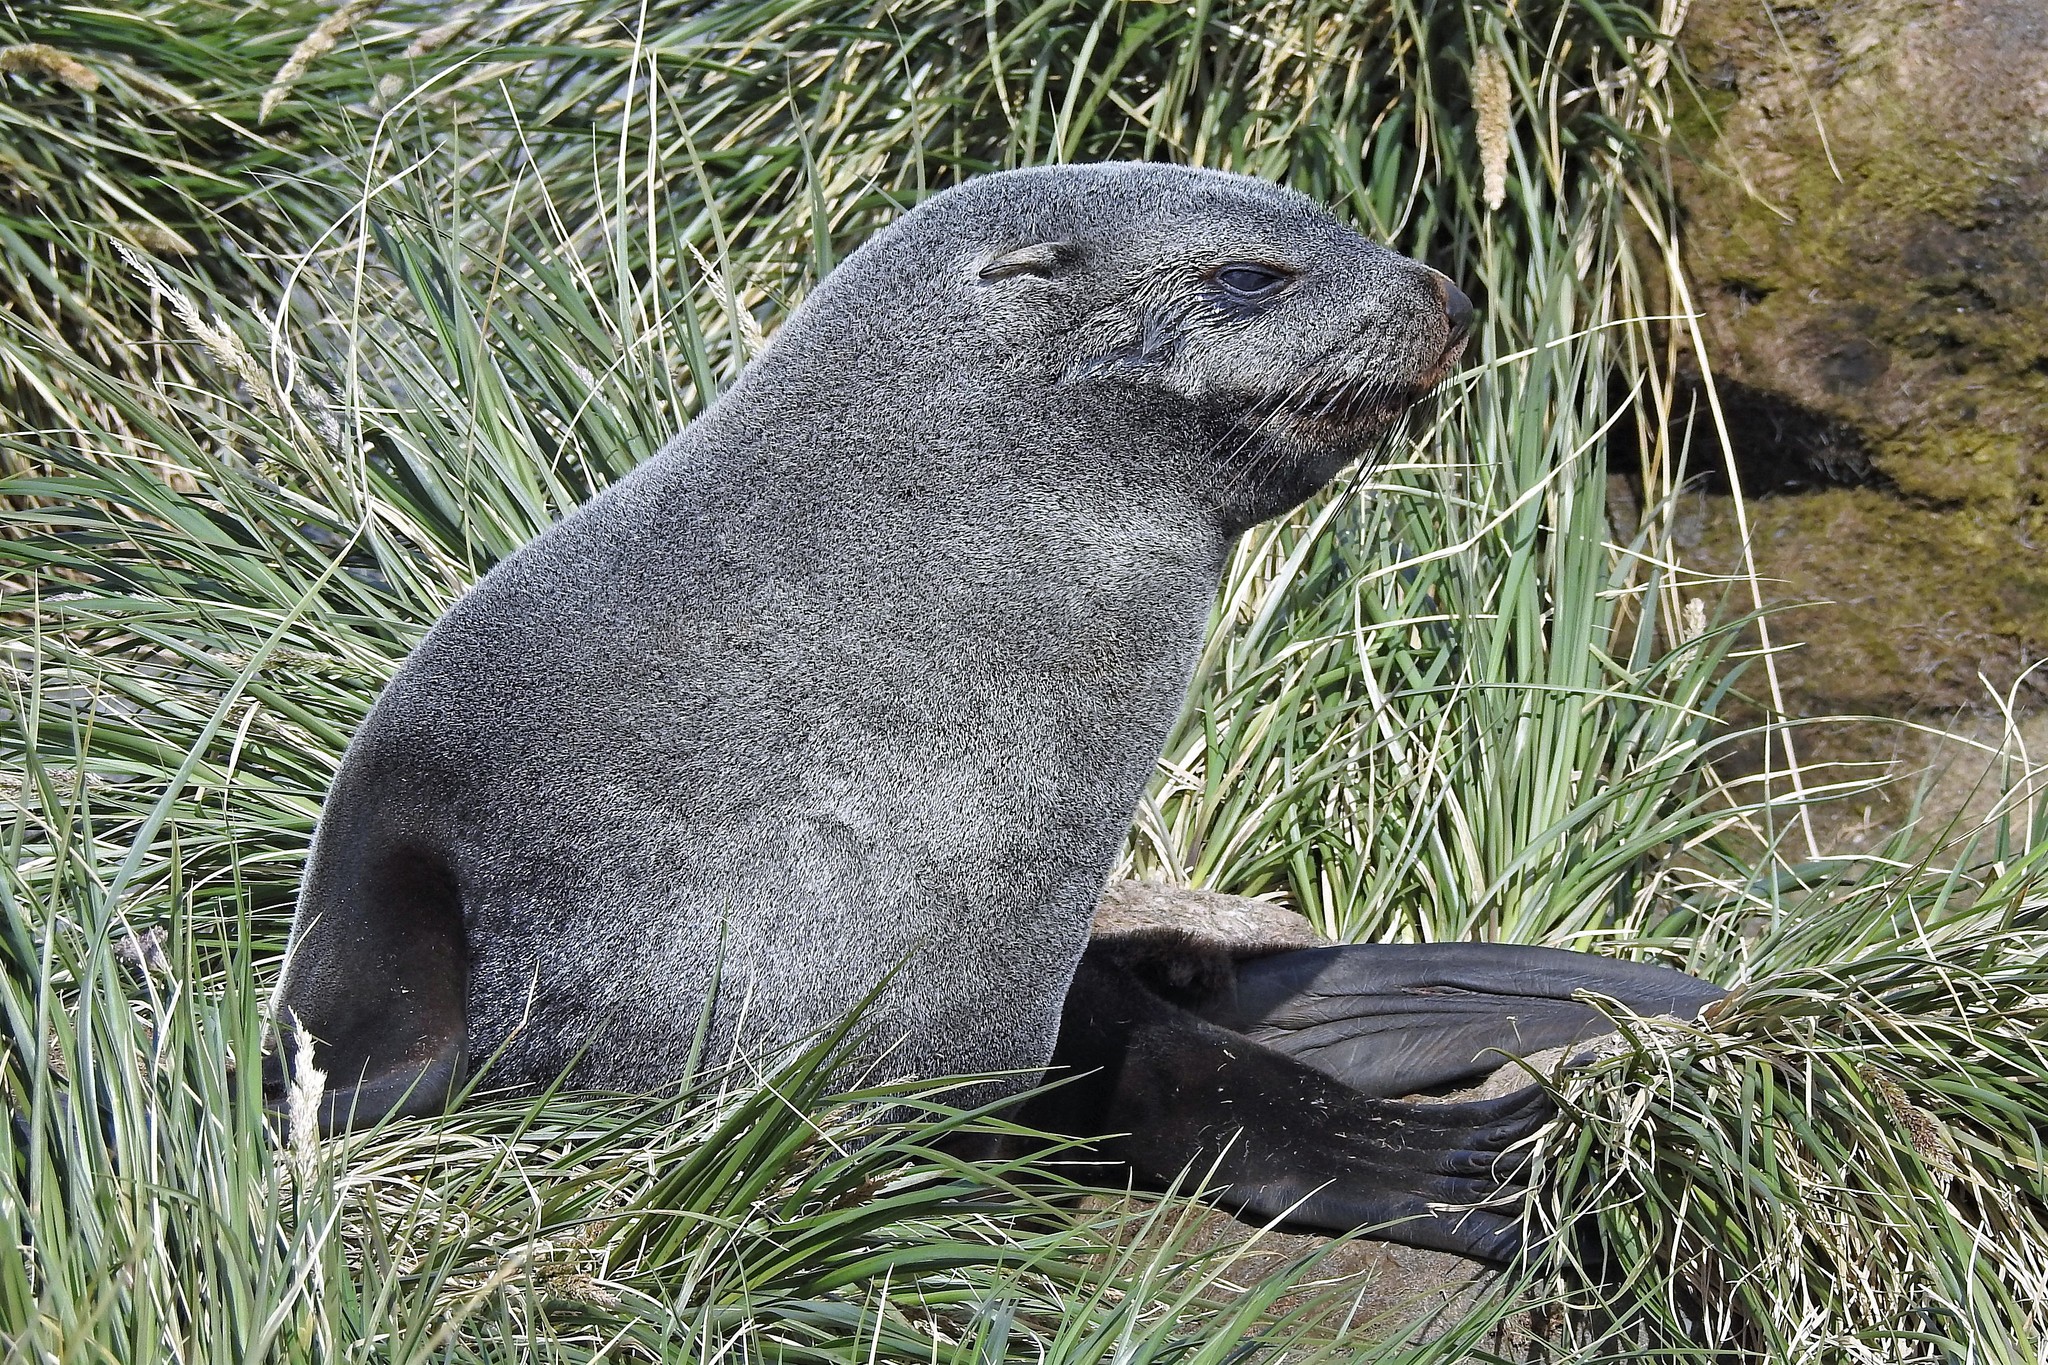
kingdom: Animalia
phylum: Chordata
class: Mammalia
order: Carnivora
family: Otariidae
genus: Arctocephalus
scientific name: Arctocephalus gazella
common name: Antarctic fur seal
